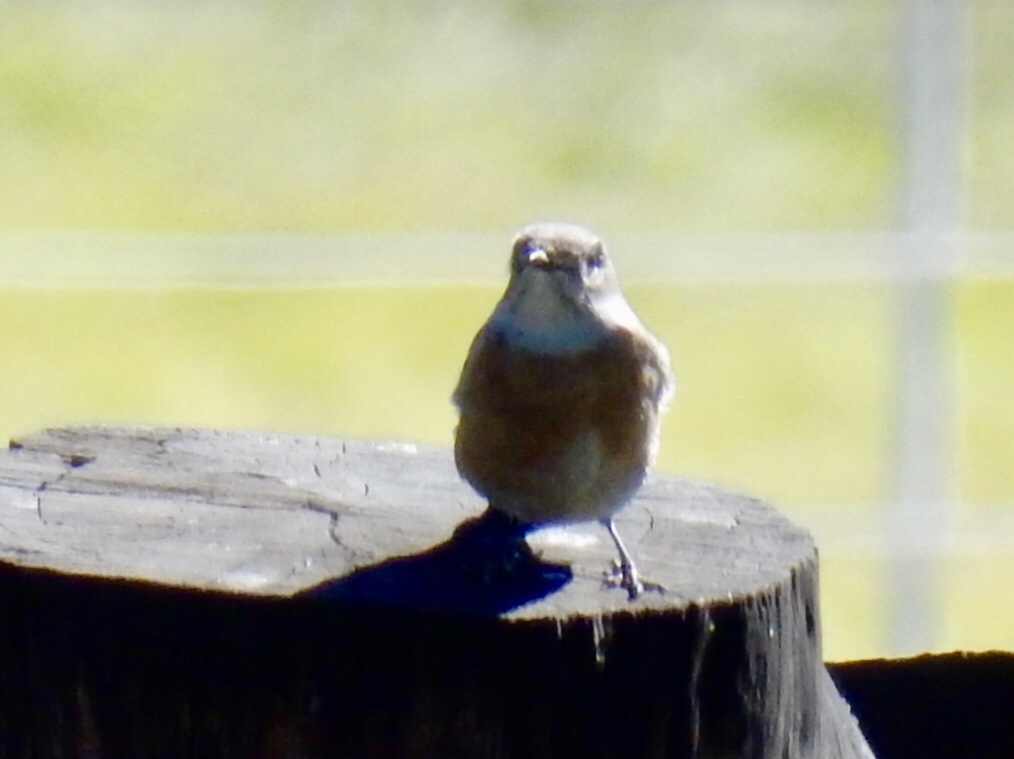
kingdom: Animalia
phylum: Chordata
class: Aves
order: Passeriformes
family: Turdidae
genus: Sialia
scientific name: Sialia mexicana
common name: Western bluebird
